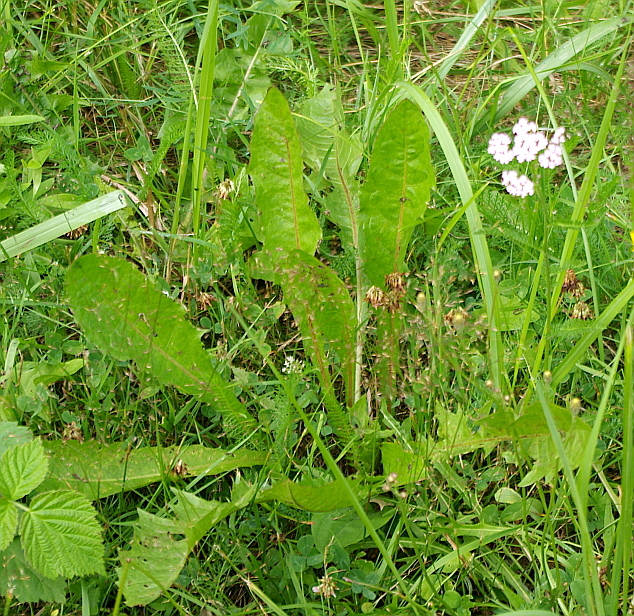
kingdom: Plantae
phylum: Tracheophyta
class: Magnoliopsida
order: Asterales
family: Asteraceae
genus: Taraxacum
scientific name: Taraxacum officinale
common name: Common dandelion
